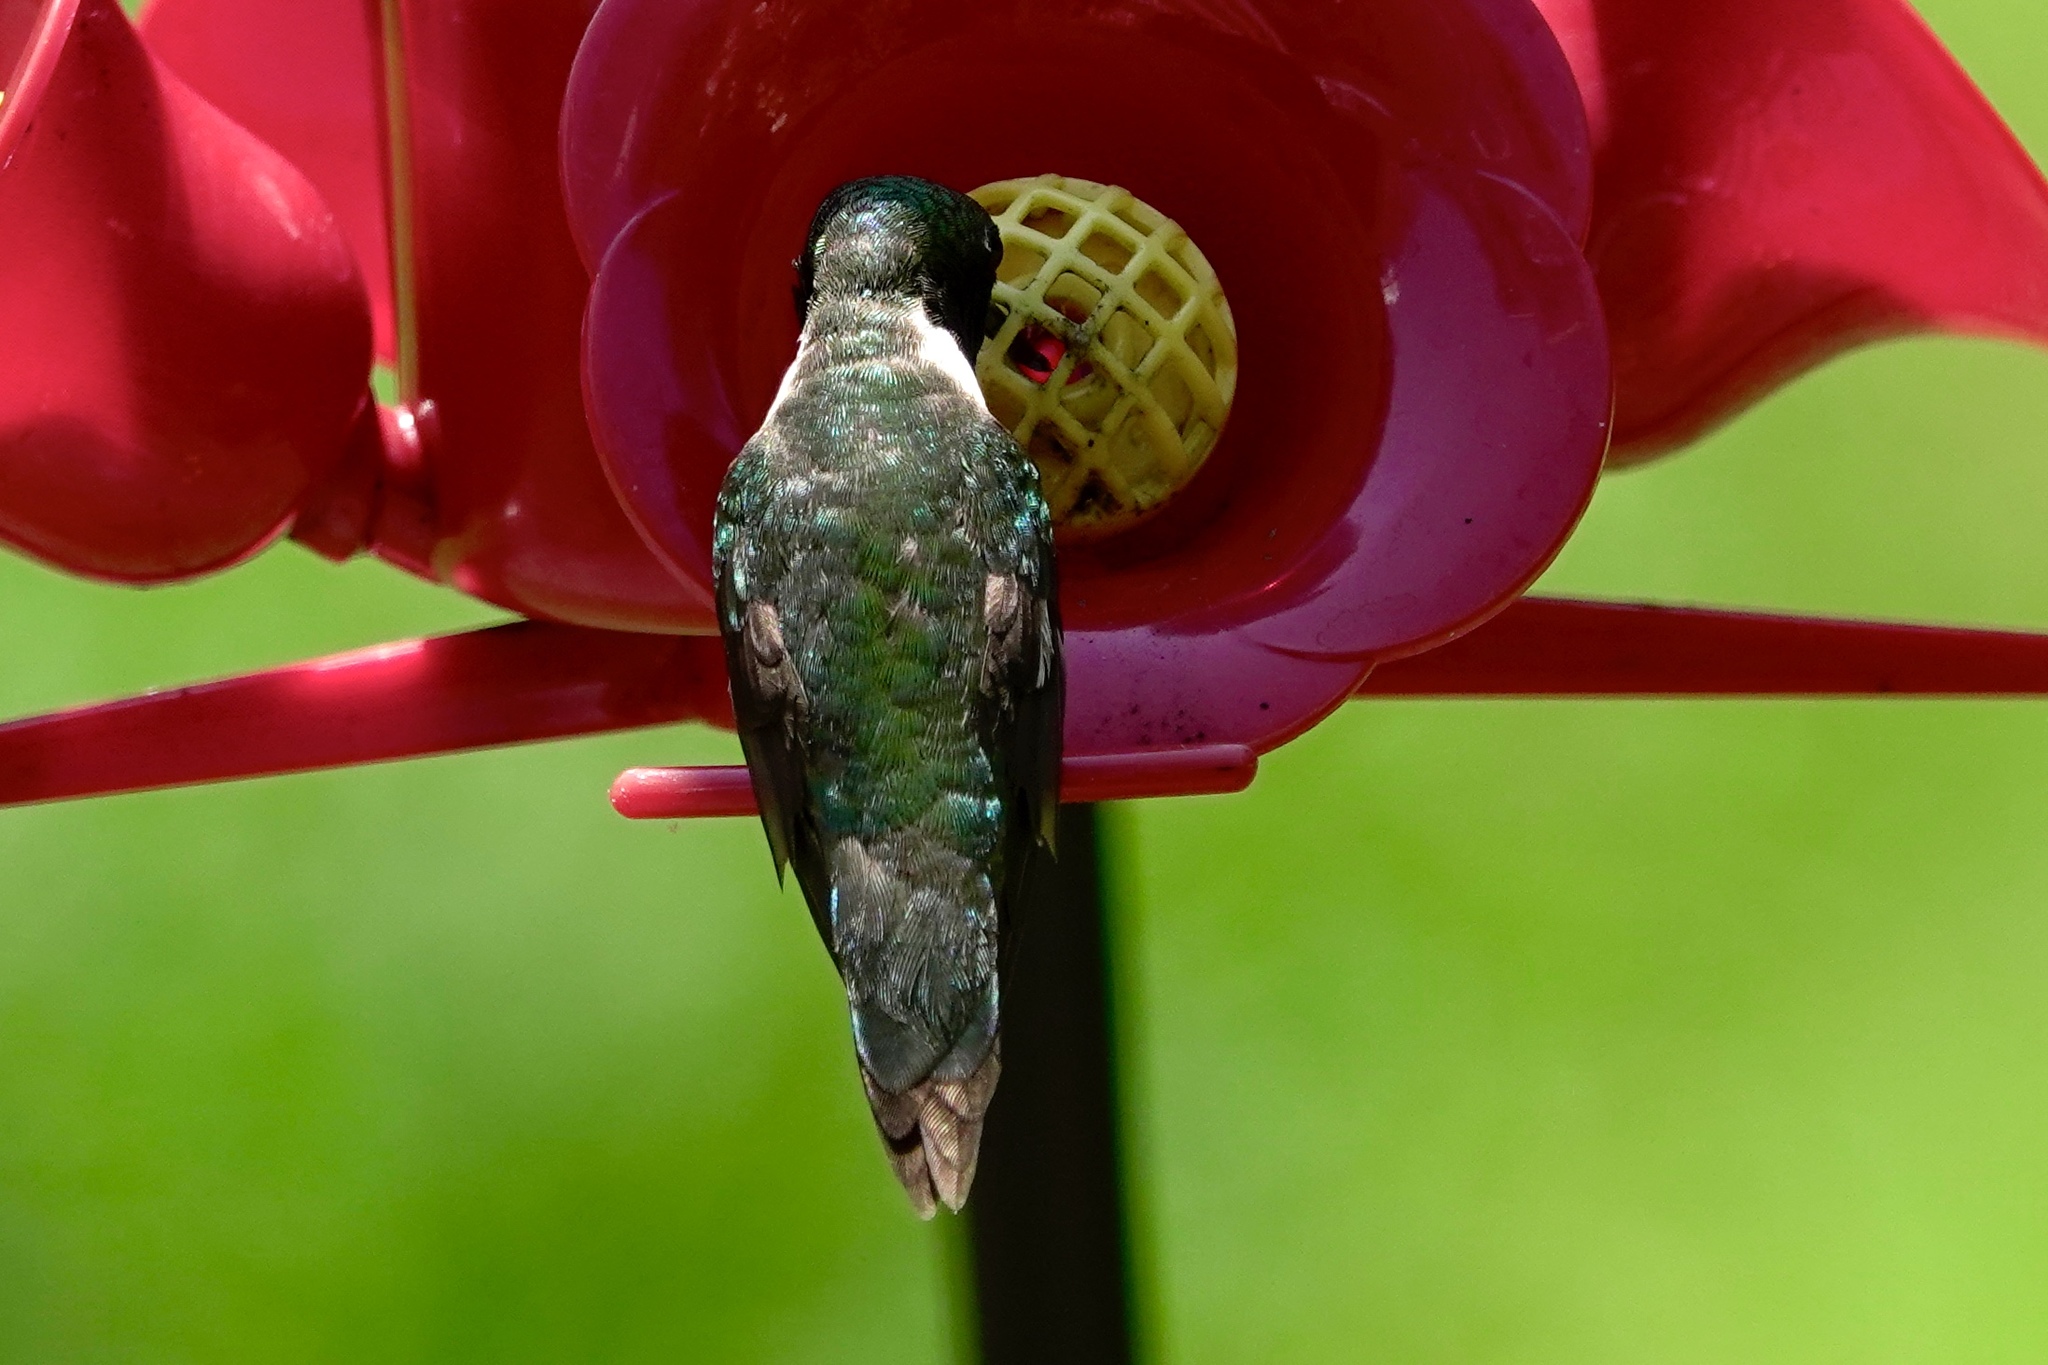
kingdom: Animalia
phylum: Chordata
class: Aves
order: Apodiformes
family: Trochilidae
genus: Archilochus
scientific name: Archilochus colubris
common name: Ruby-throated hummingbird
